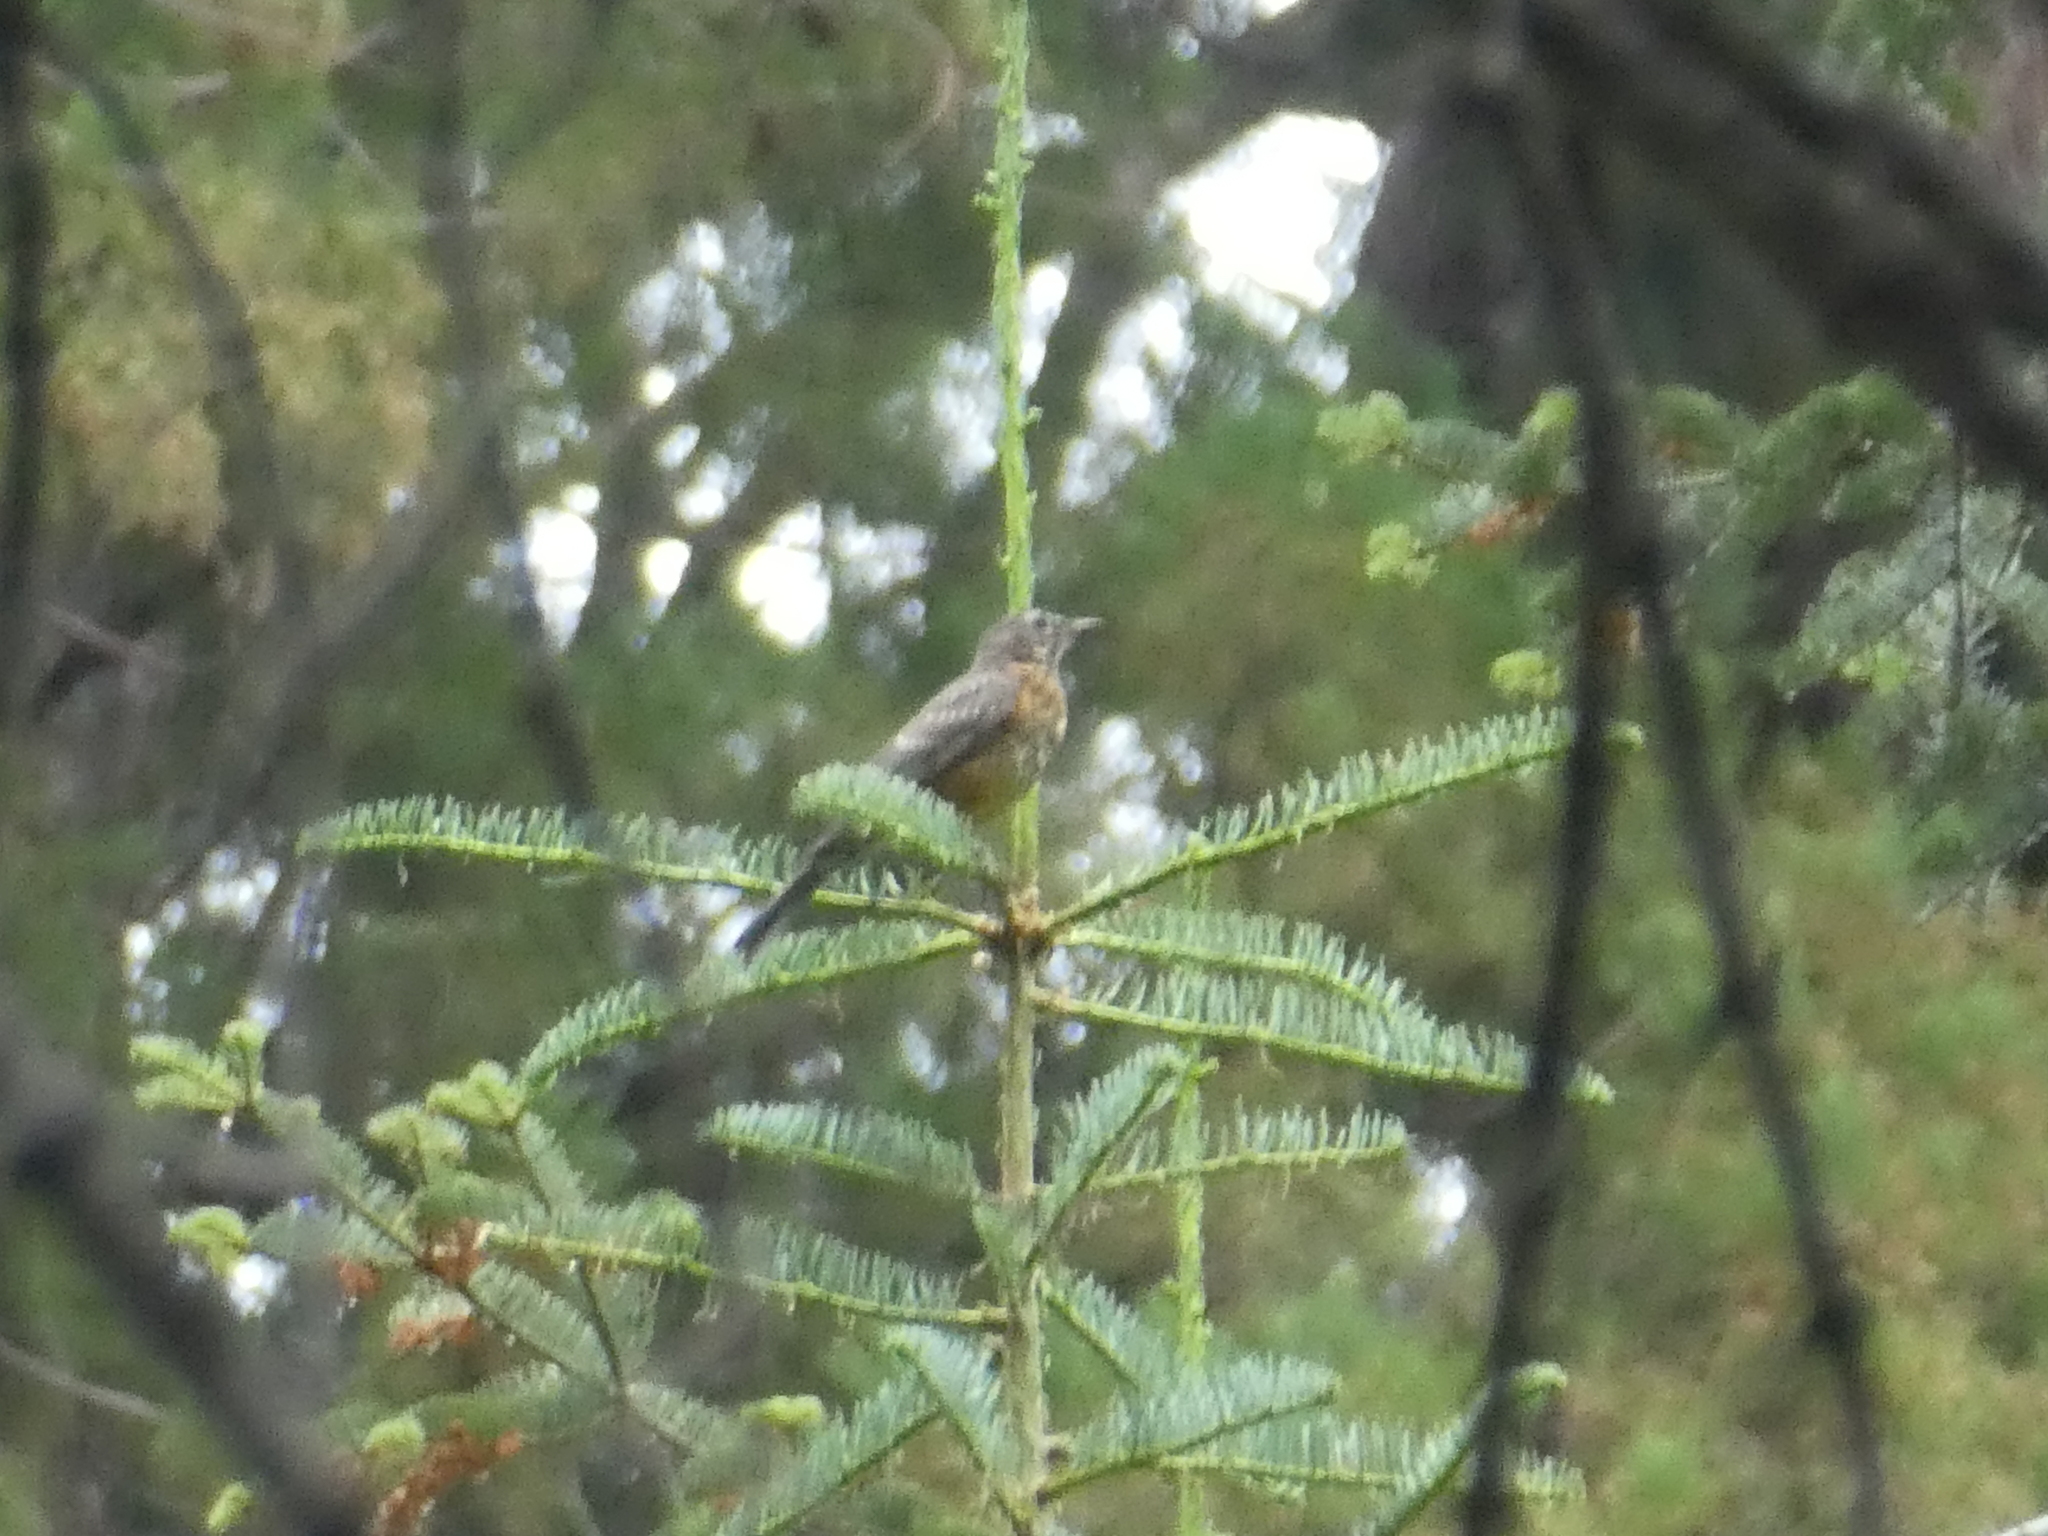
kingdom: Animalia
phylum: Chordata
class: Aves
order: Passeriformes
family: Turdidae
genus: Turdus
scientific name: Turdus migratorius
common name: American robin
